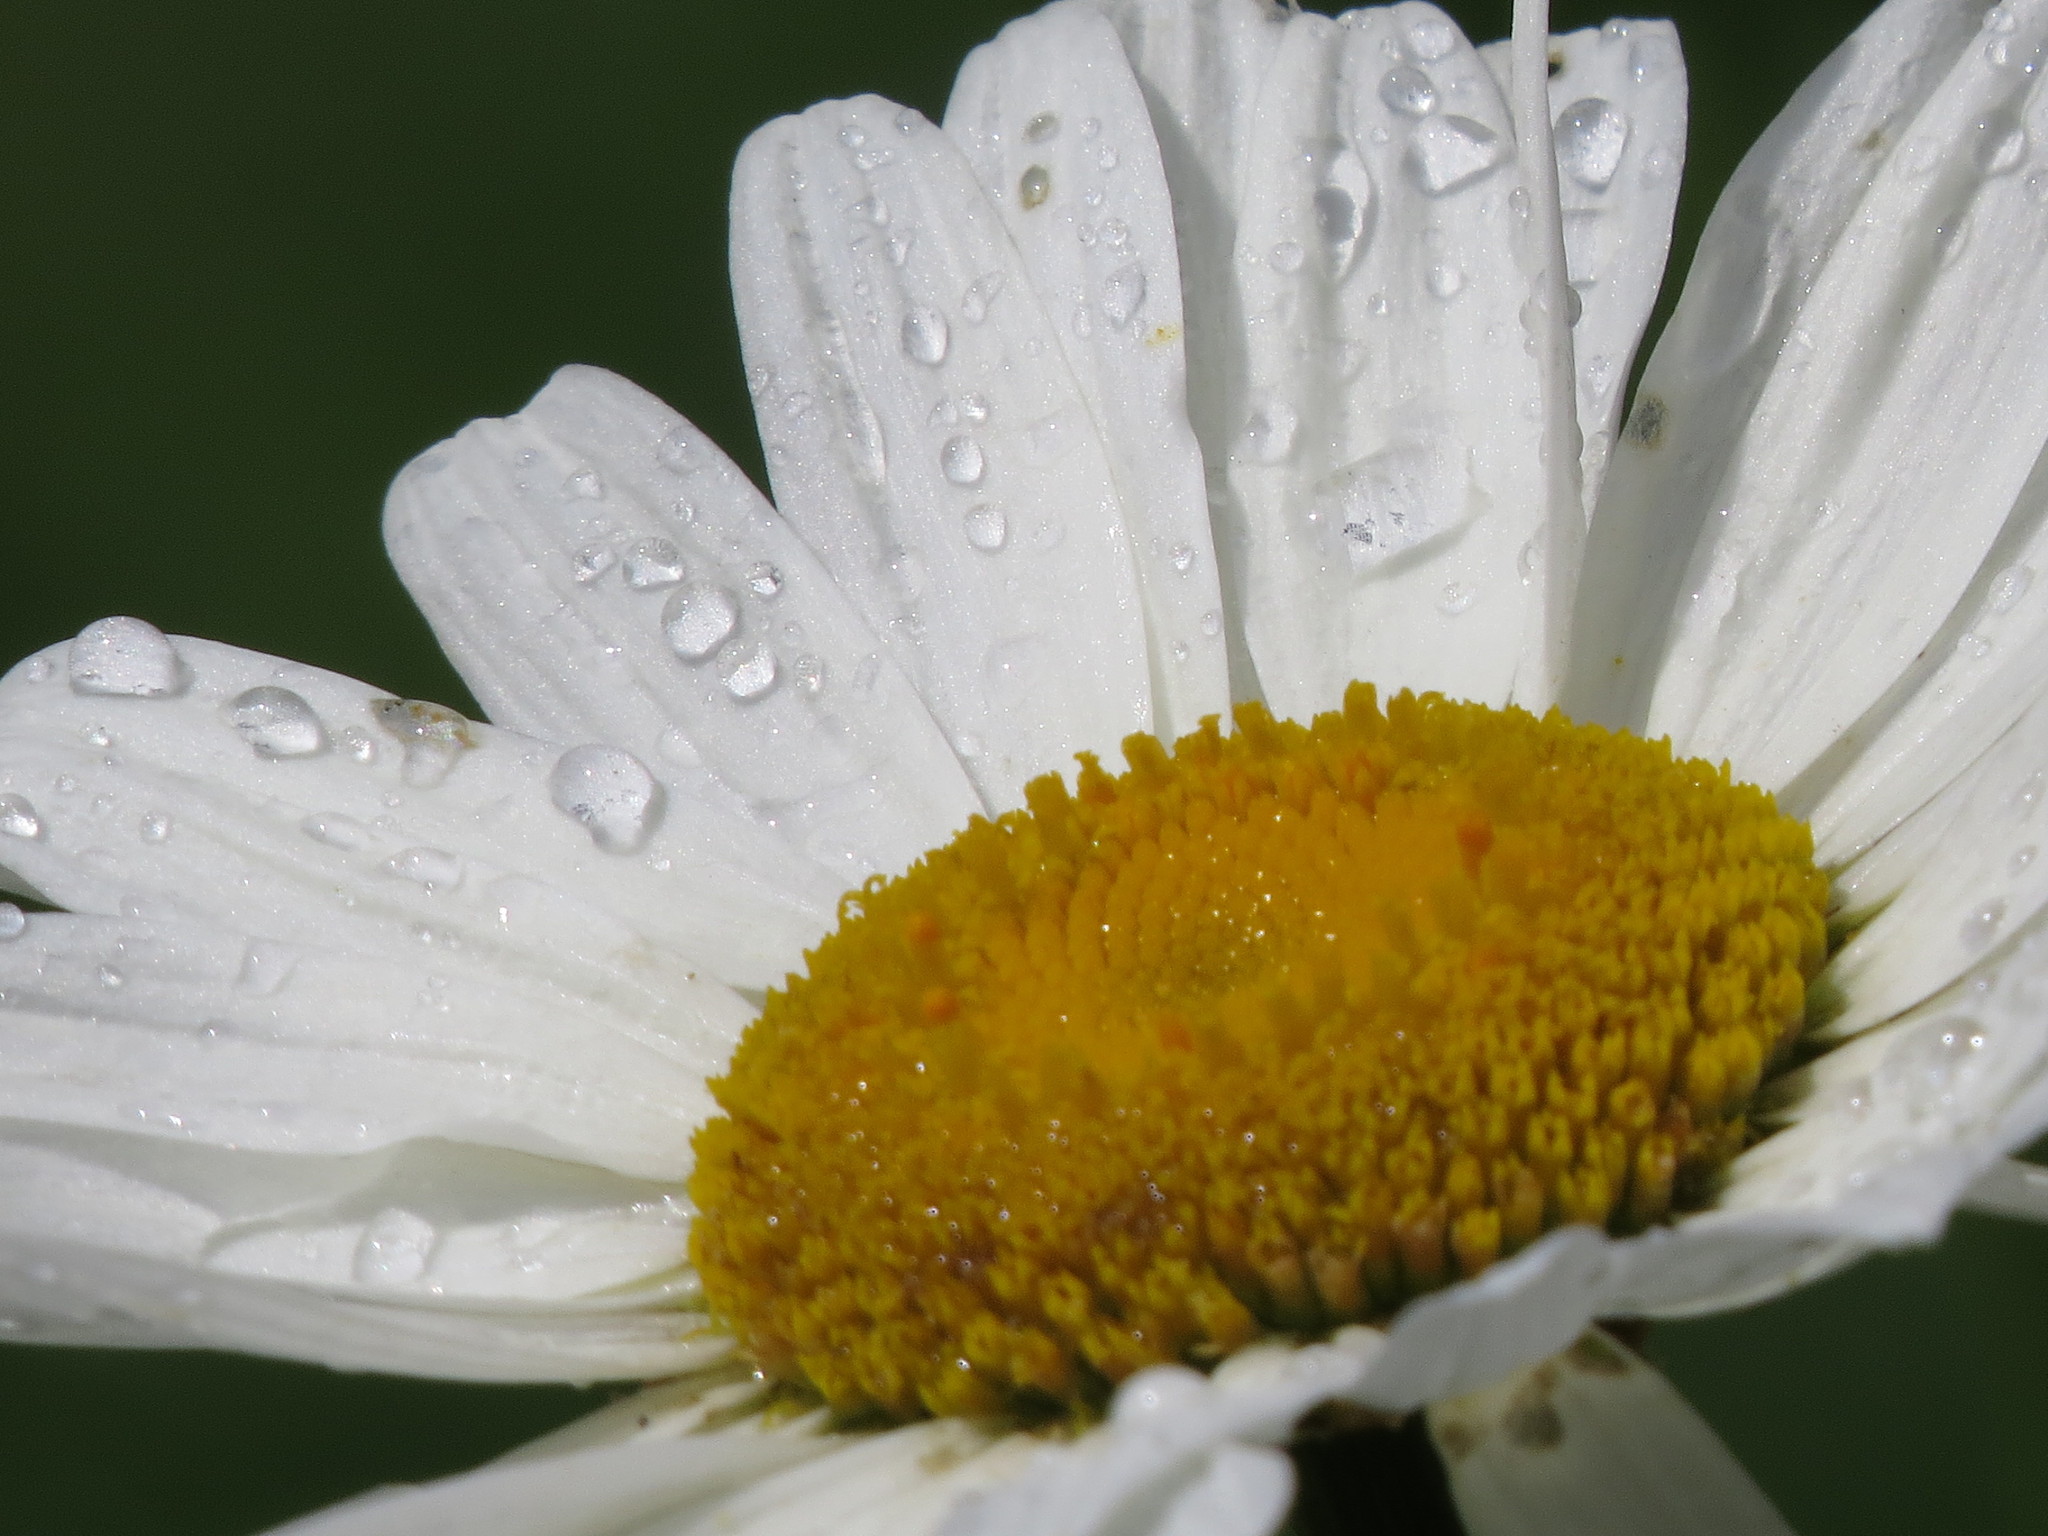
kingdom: Plantae
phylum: Tracheophyta
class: Magnoliopsida
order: Asterales
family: Asteraceae
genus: Leucanthemum
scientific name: Leucanthemum vulgare
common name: Oxeye daisy
